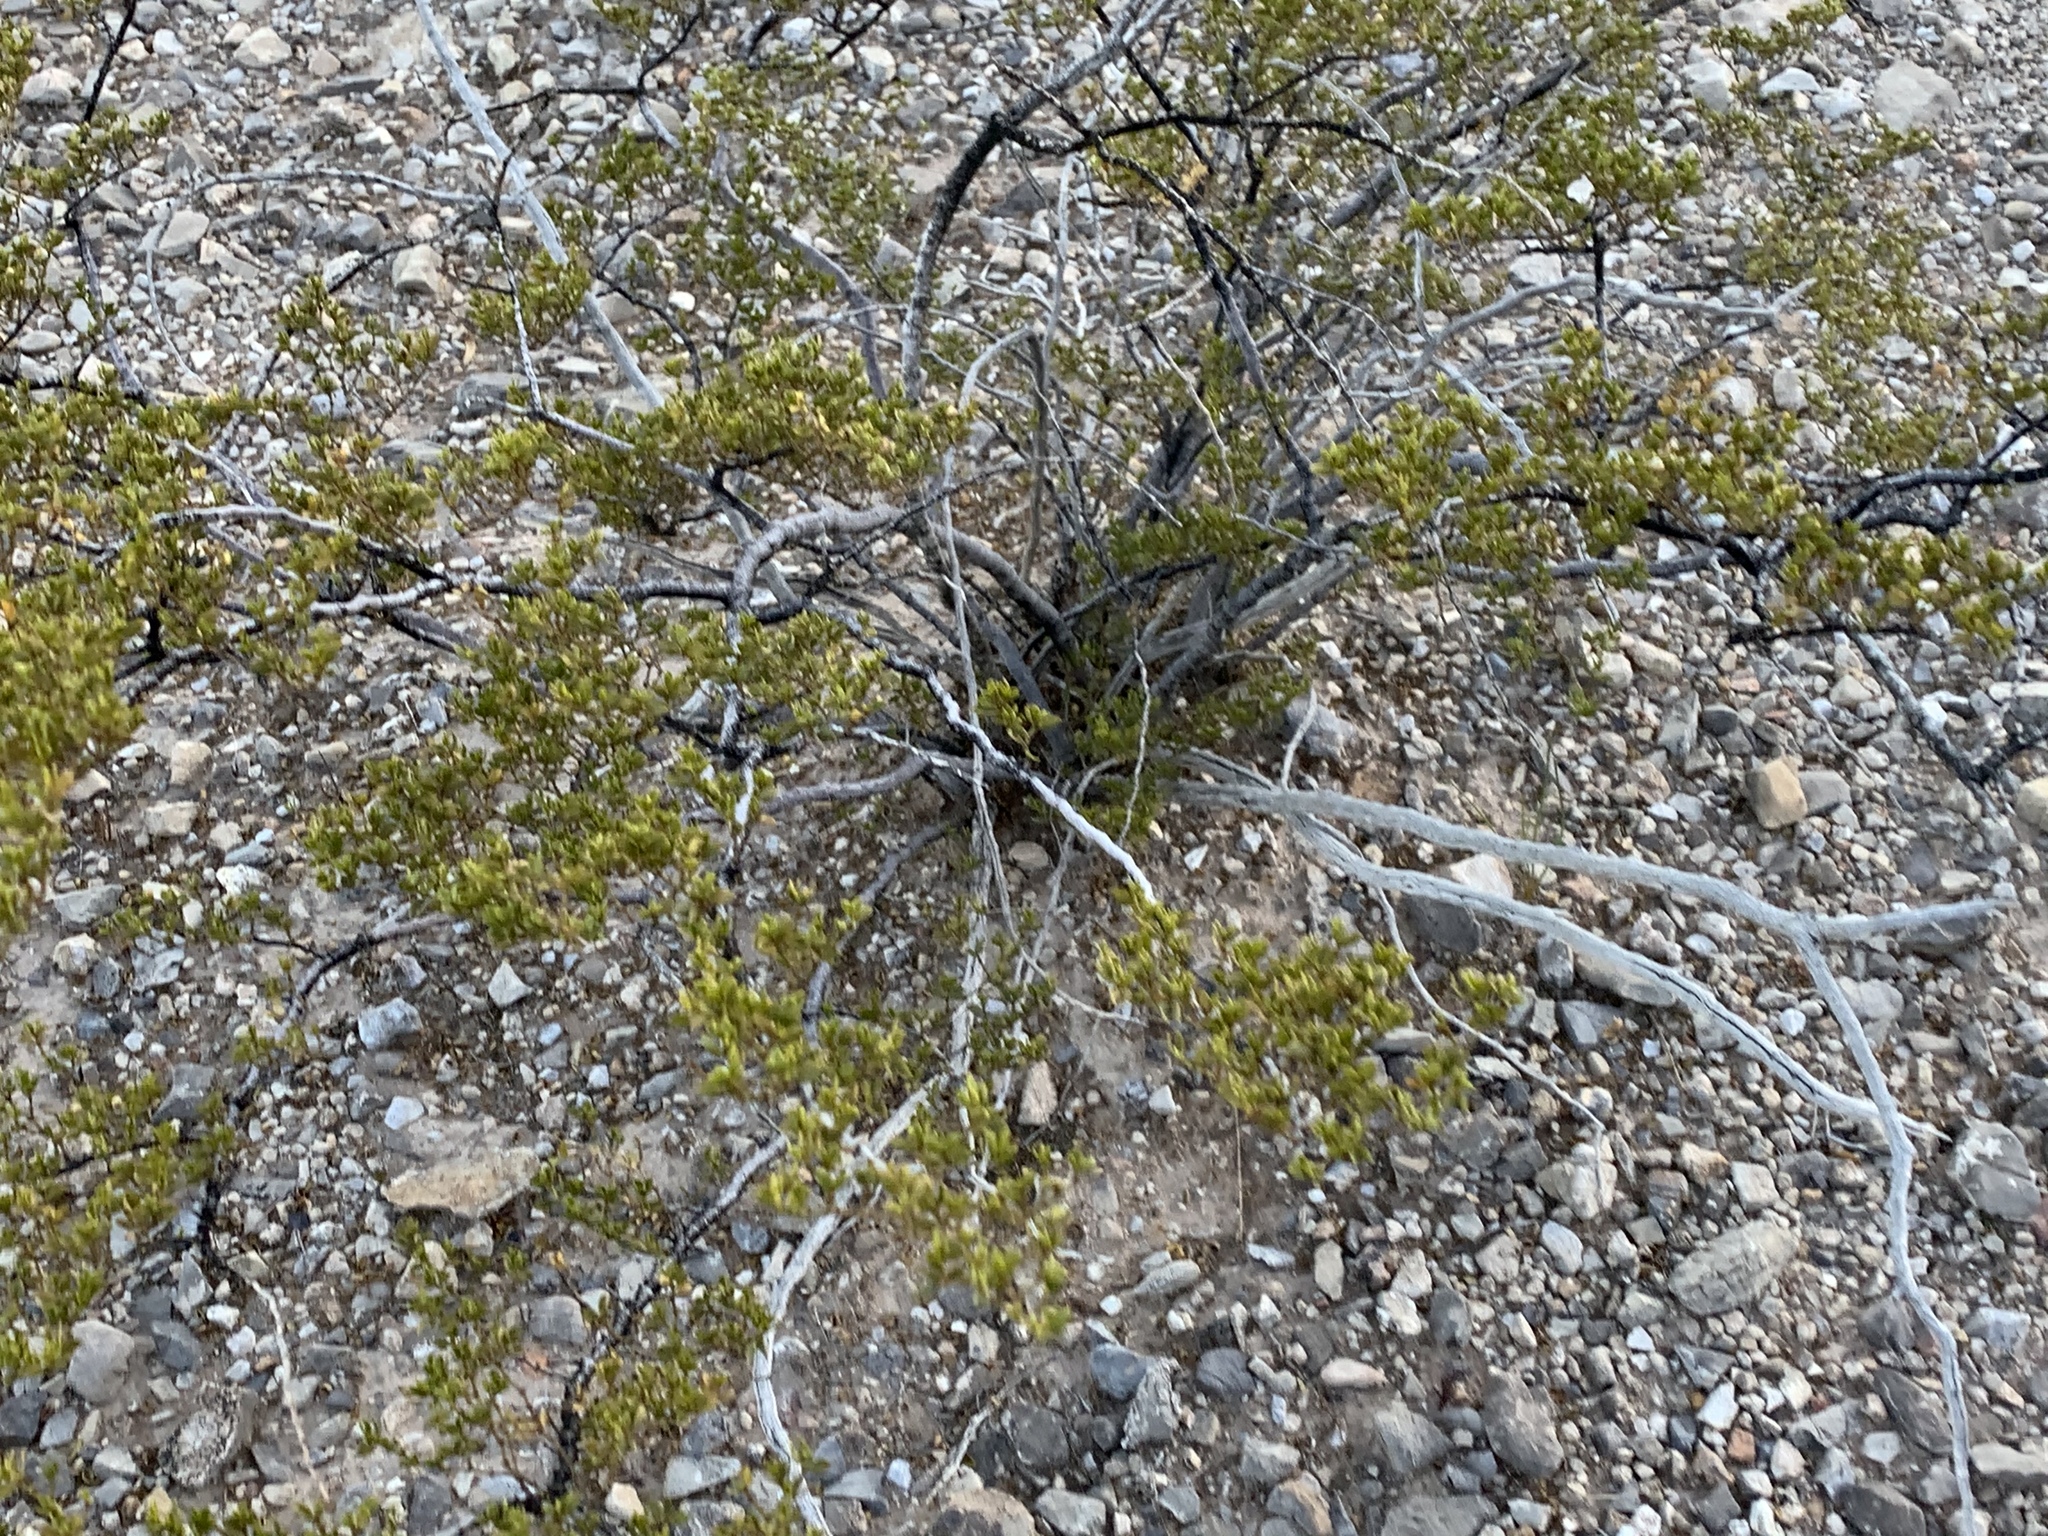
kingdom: Plantae
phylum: Tracheophyta
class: Magnoliopsida
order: Zygophyllales
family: Zygophyllaceae
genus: Larrea
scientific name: Larrea tridentata
